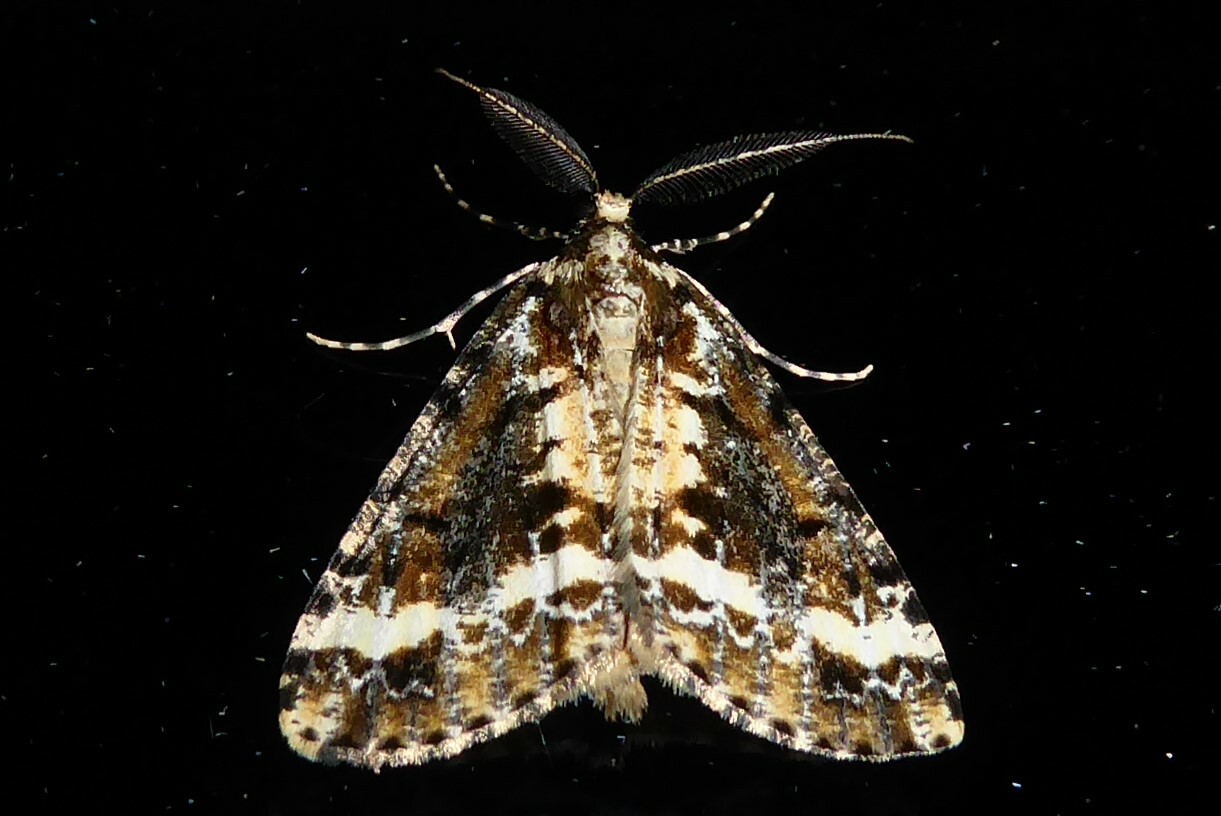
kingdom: Animalia
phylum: Arthropoda
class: Insecta
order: Lepidoptera
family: Geometridae
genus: Pseudocoremia
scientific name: Pseudocoremia leucelaea
